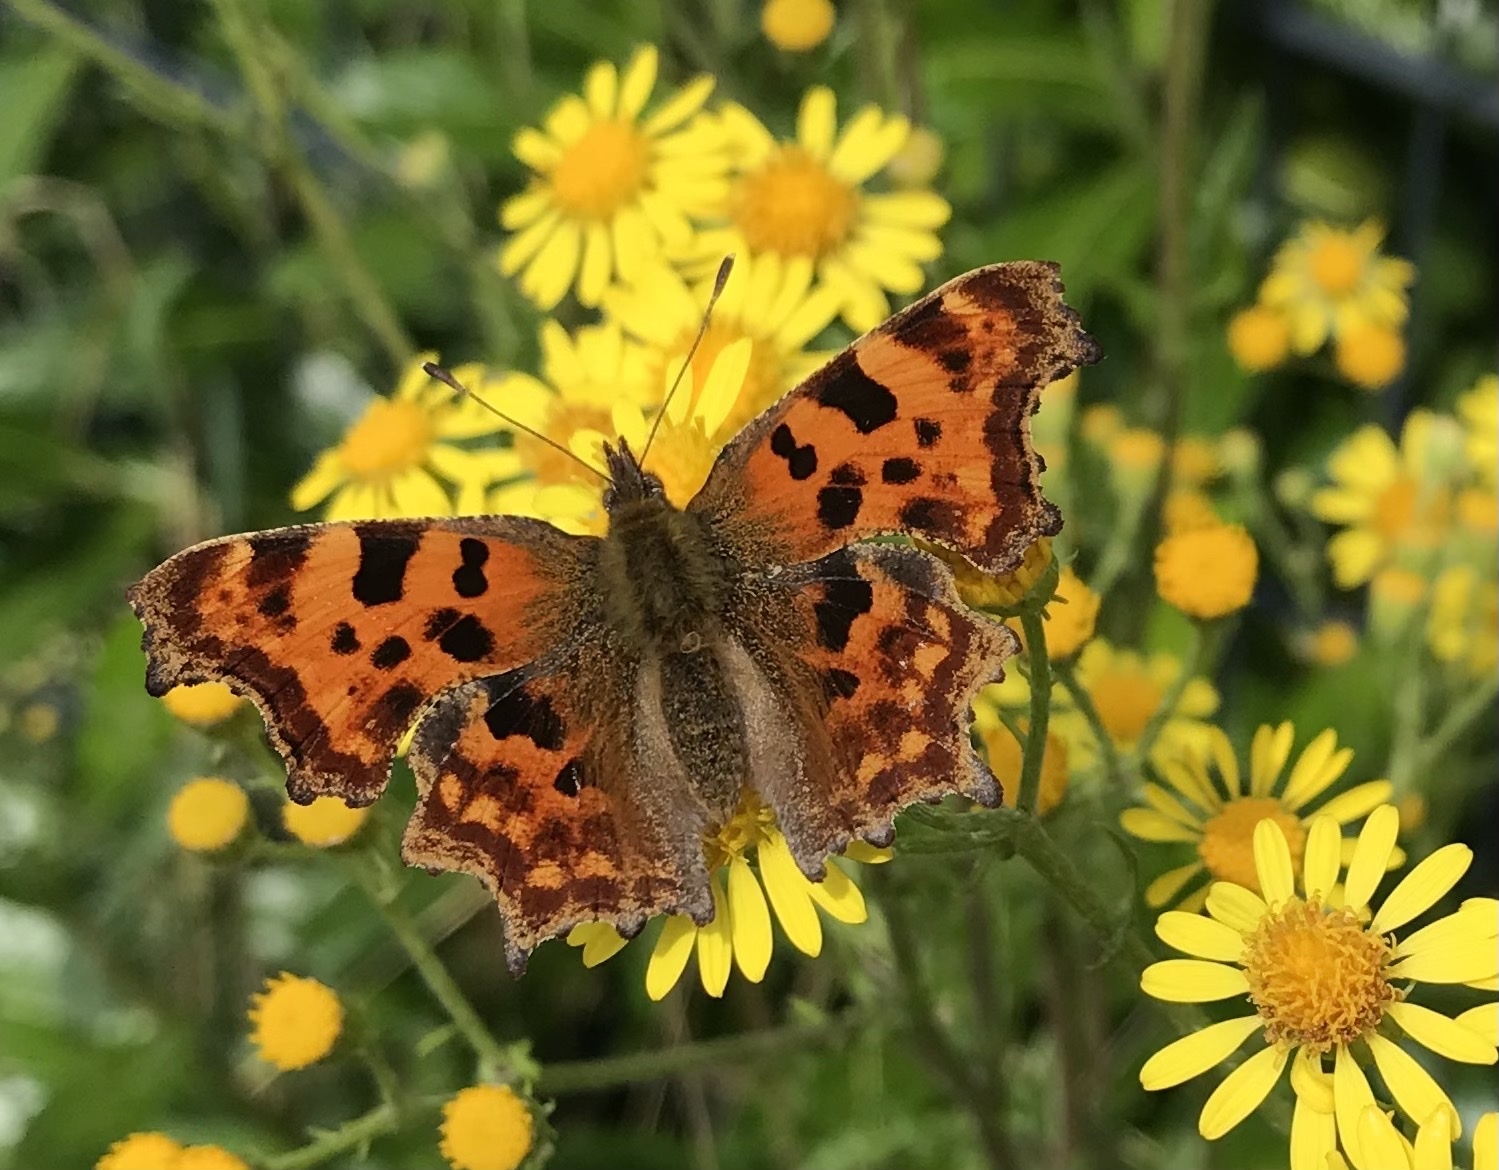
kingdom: Animalia
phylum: Arthropoda
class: Insecta
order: Lepidoptera
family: Nymphalidae
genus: Polygonia
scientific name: Polygonia c-album
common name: Comma
